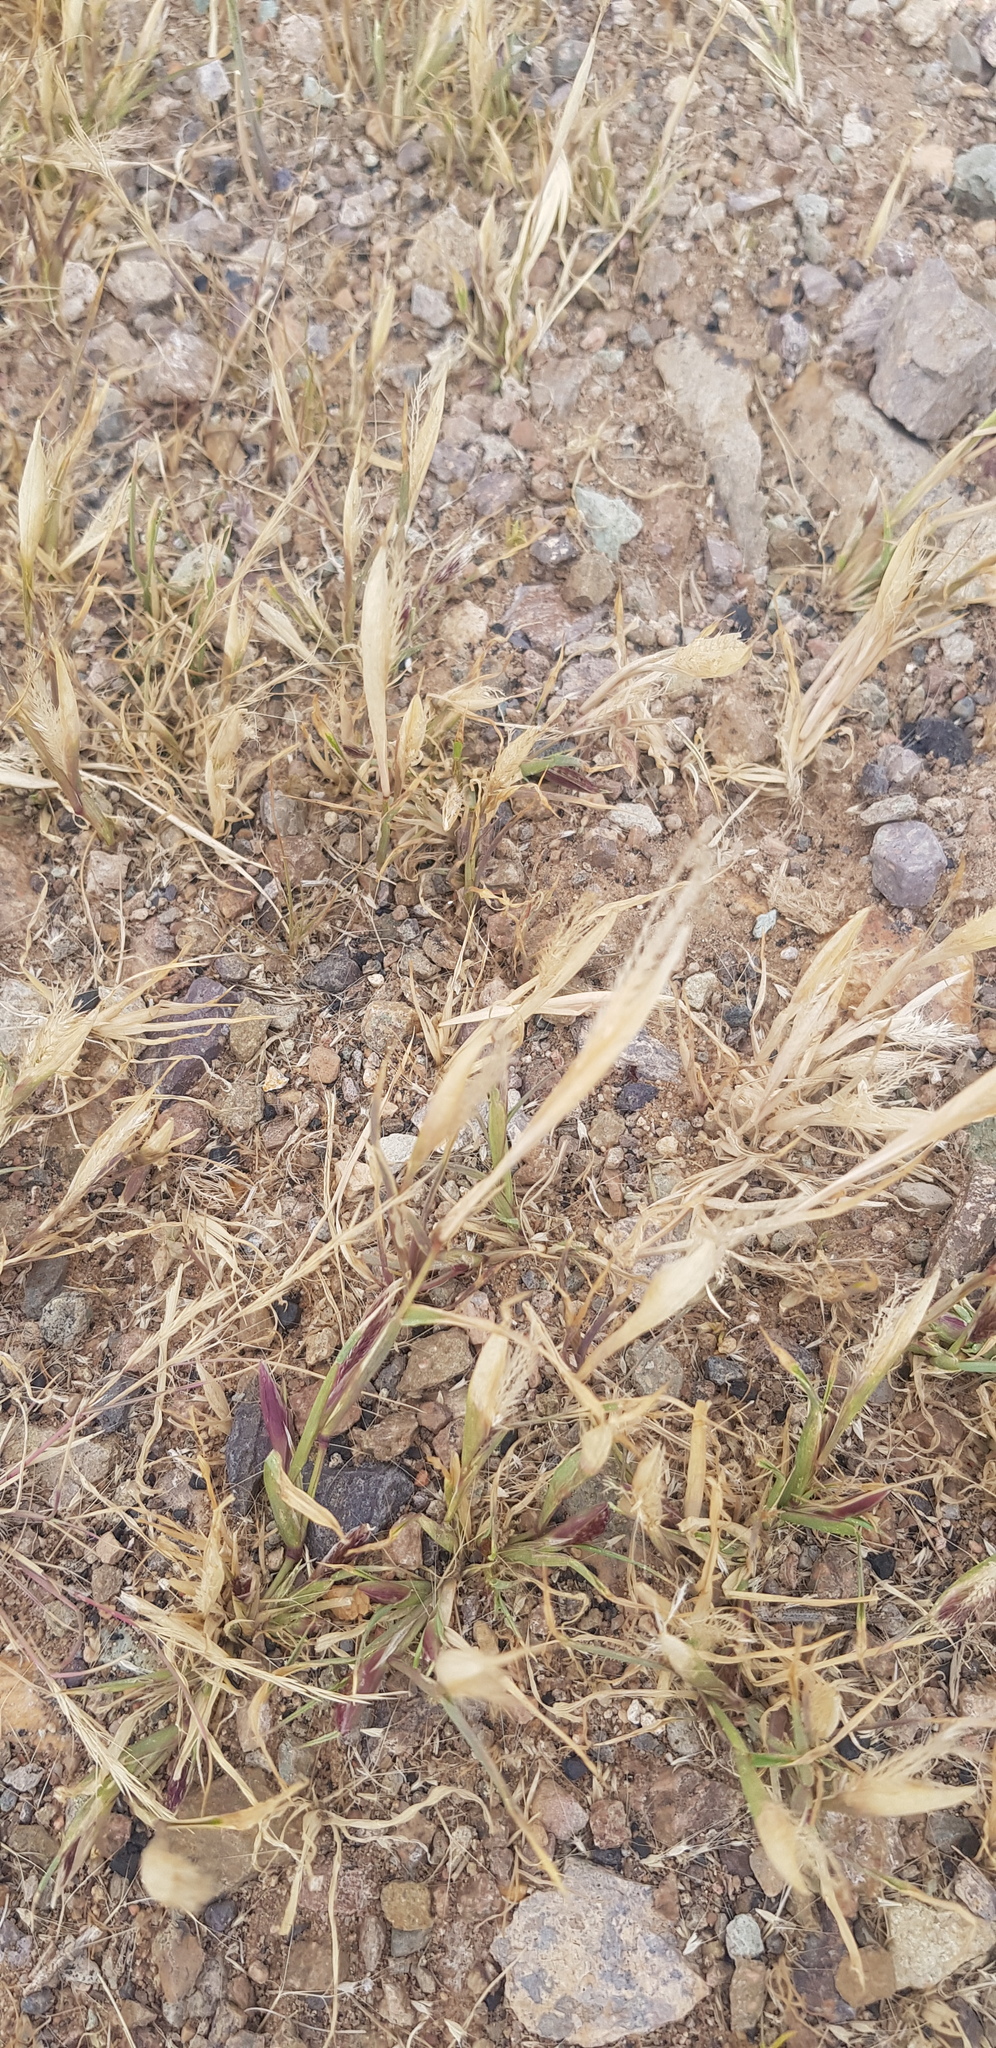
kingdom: Plantae
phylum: Tracheophyta
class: Liliopsida
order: Poales
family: Poaceae
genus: Setaria
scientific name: Setaria viridis
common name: Green bristlegrass
